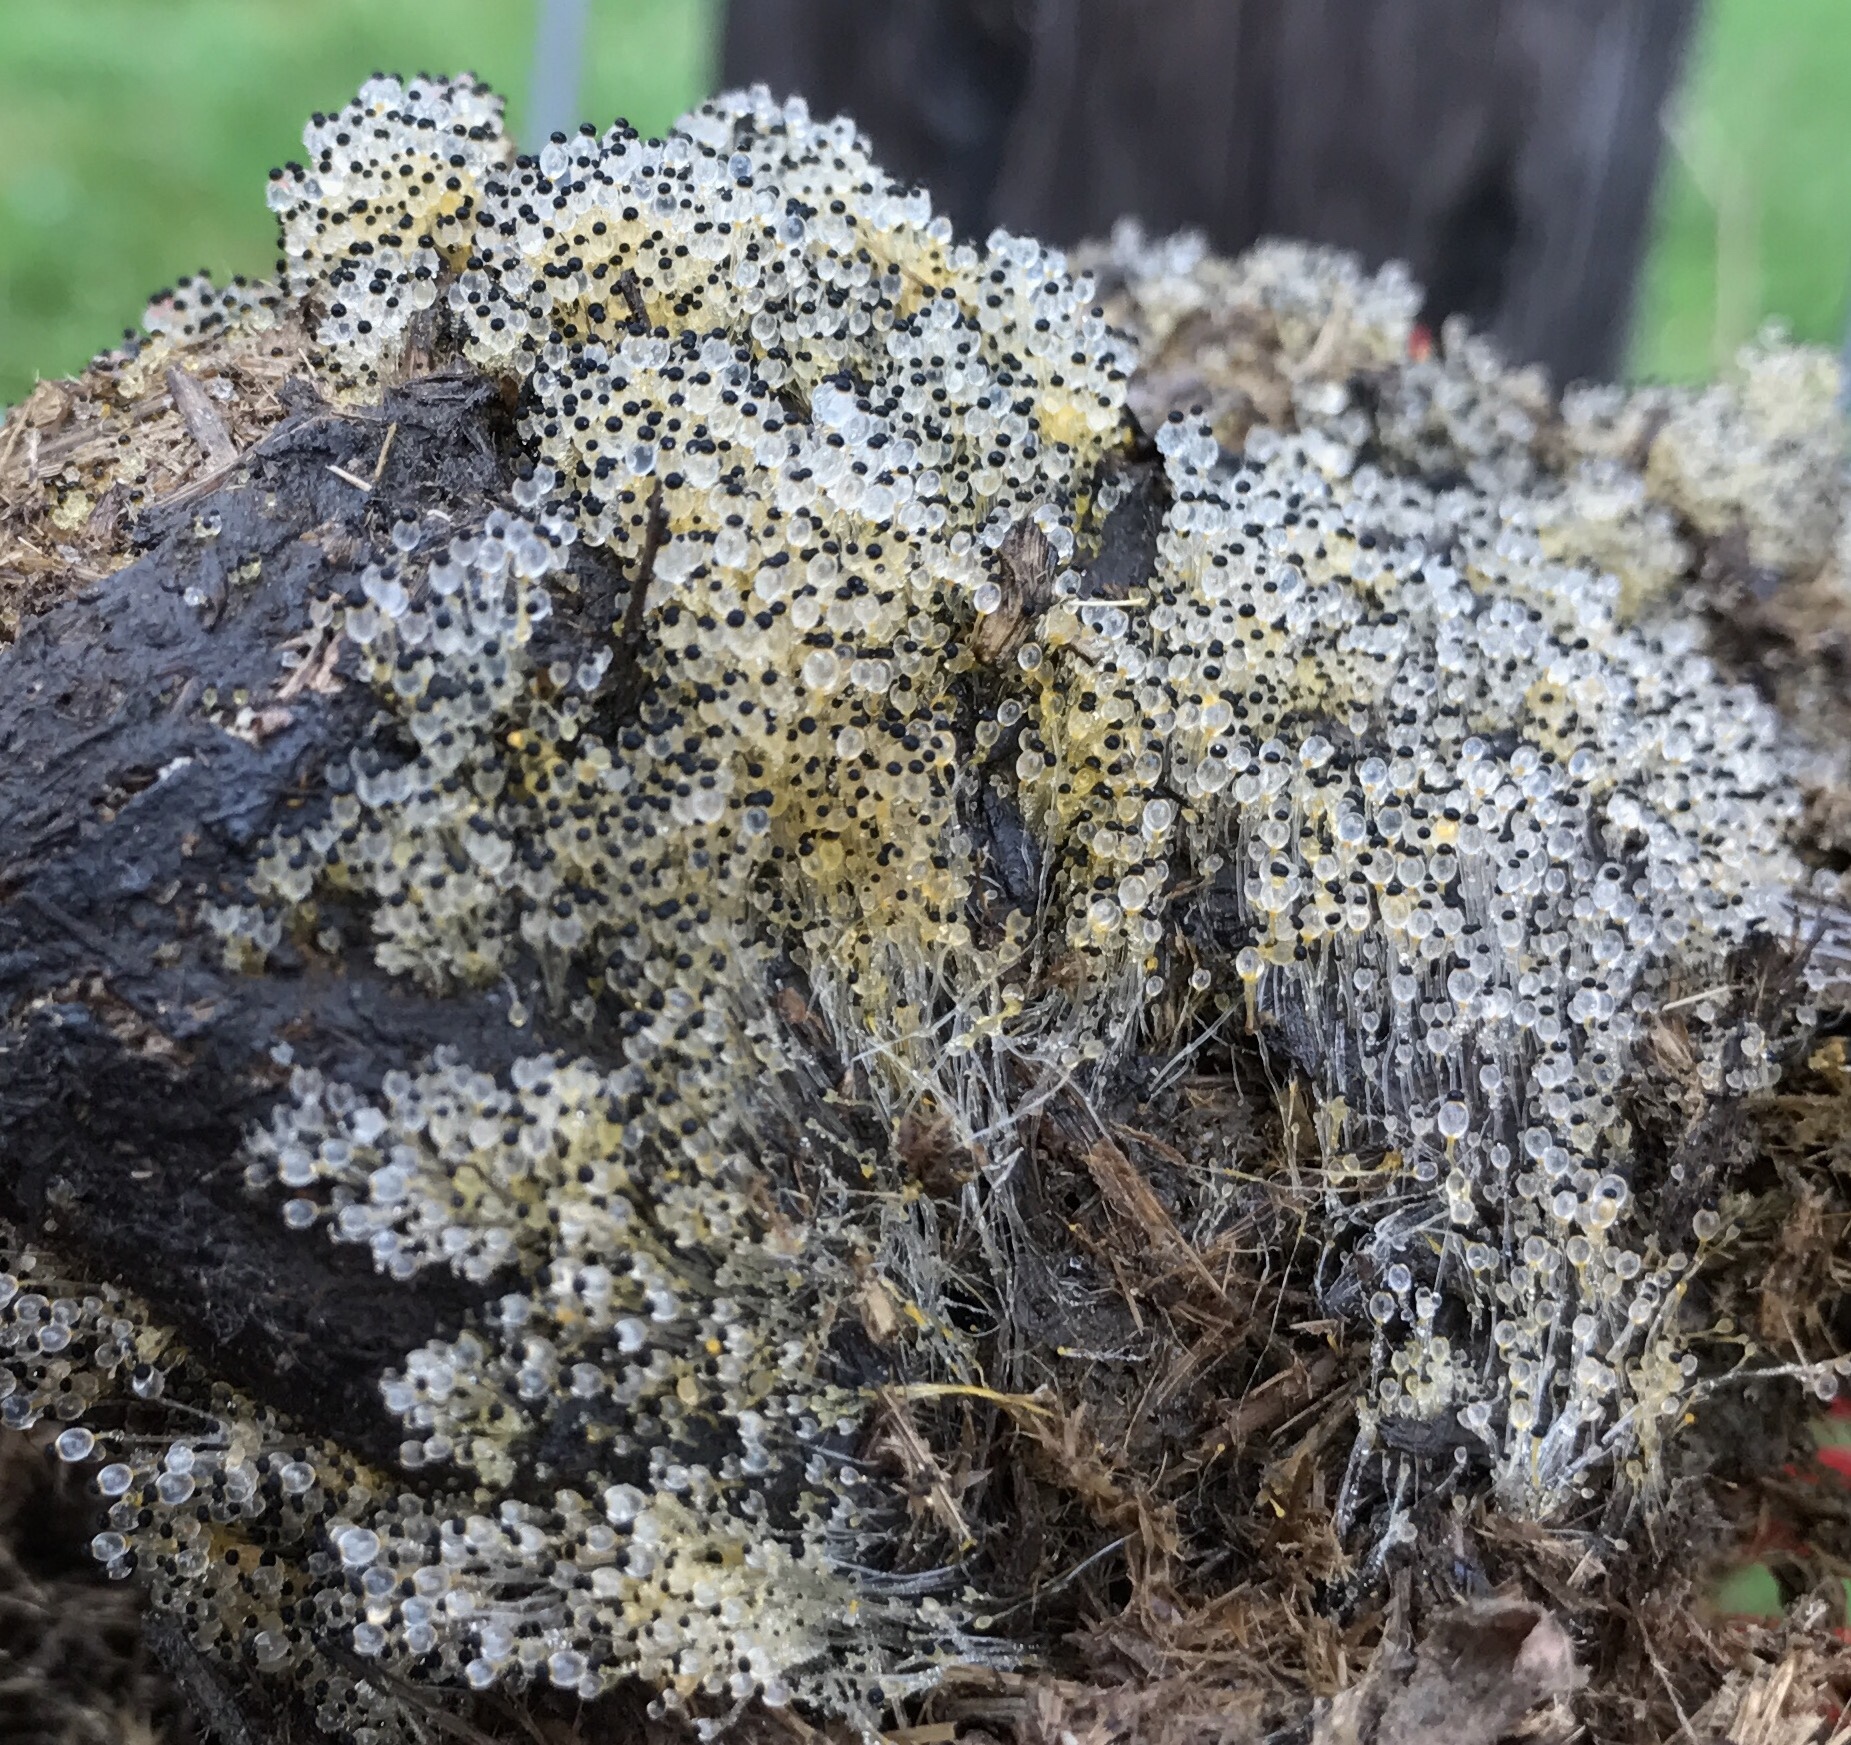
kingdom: Fungi
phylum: Mucoromycota
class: Mucoromycetes
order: Mucorales
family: Pilobolaceae
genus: Pilobolus
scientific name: Pilobolus
